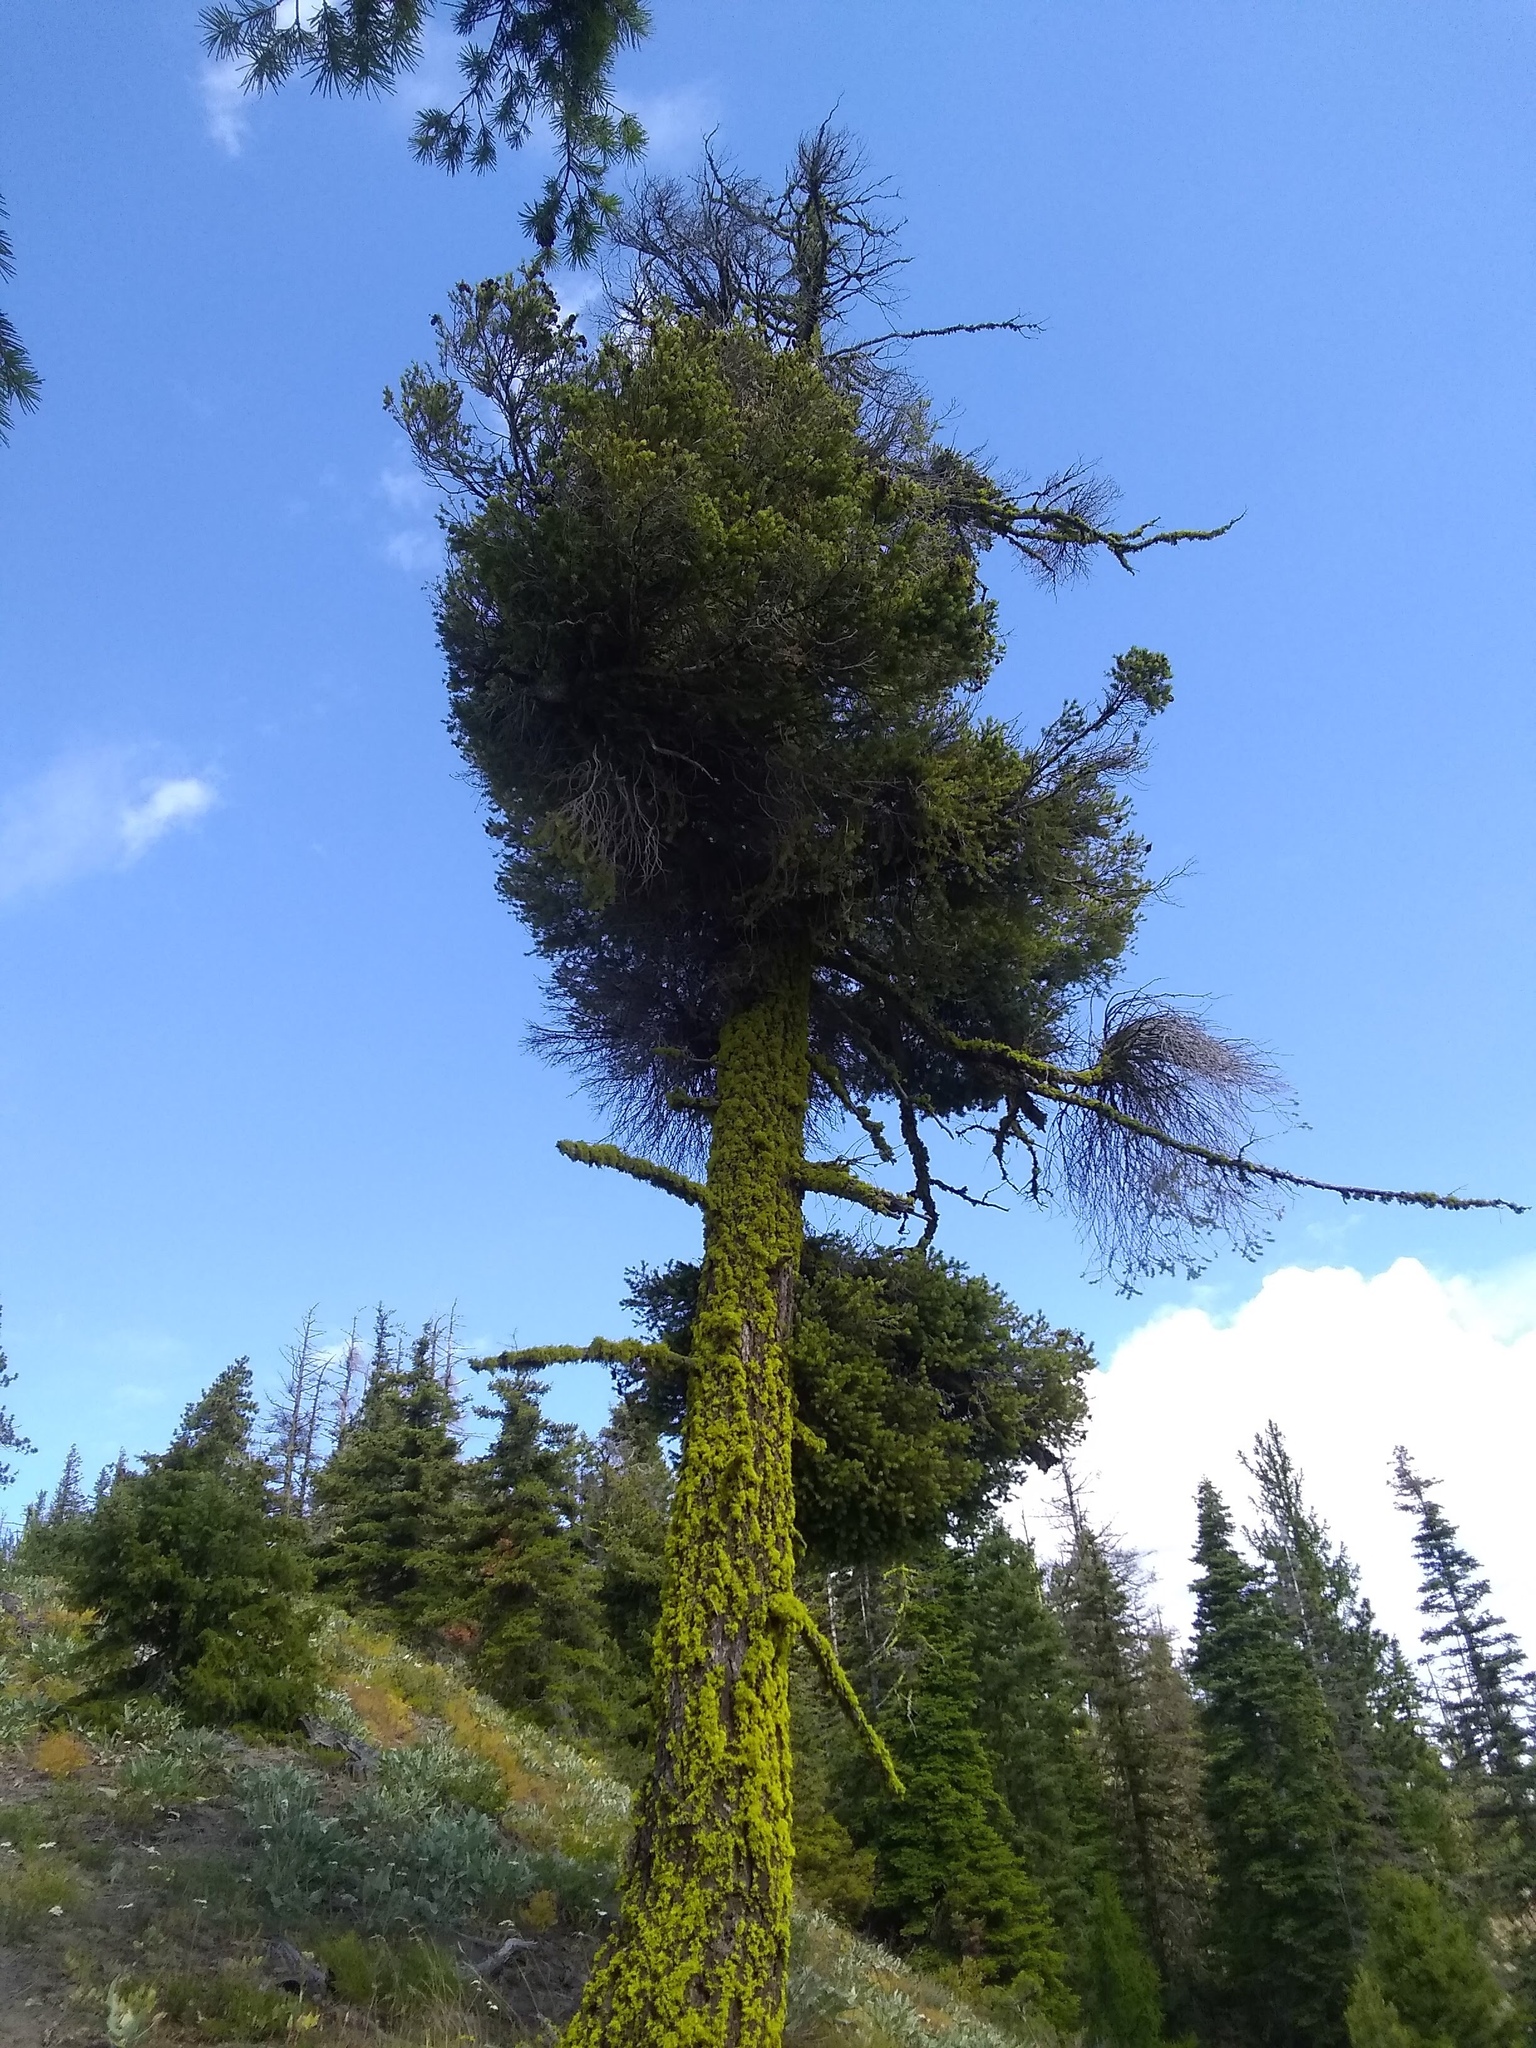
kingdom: Plantae
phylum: Tracheophyta
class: Pinopsida
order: Pinales
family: Pinaceae
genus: Pseudotsuga
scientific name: Pseudotsuga menziesii
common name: Douglas fir
